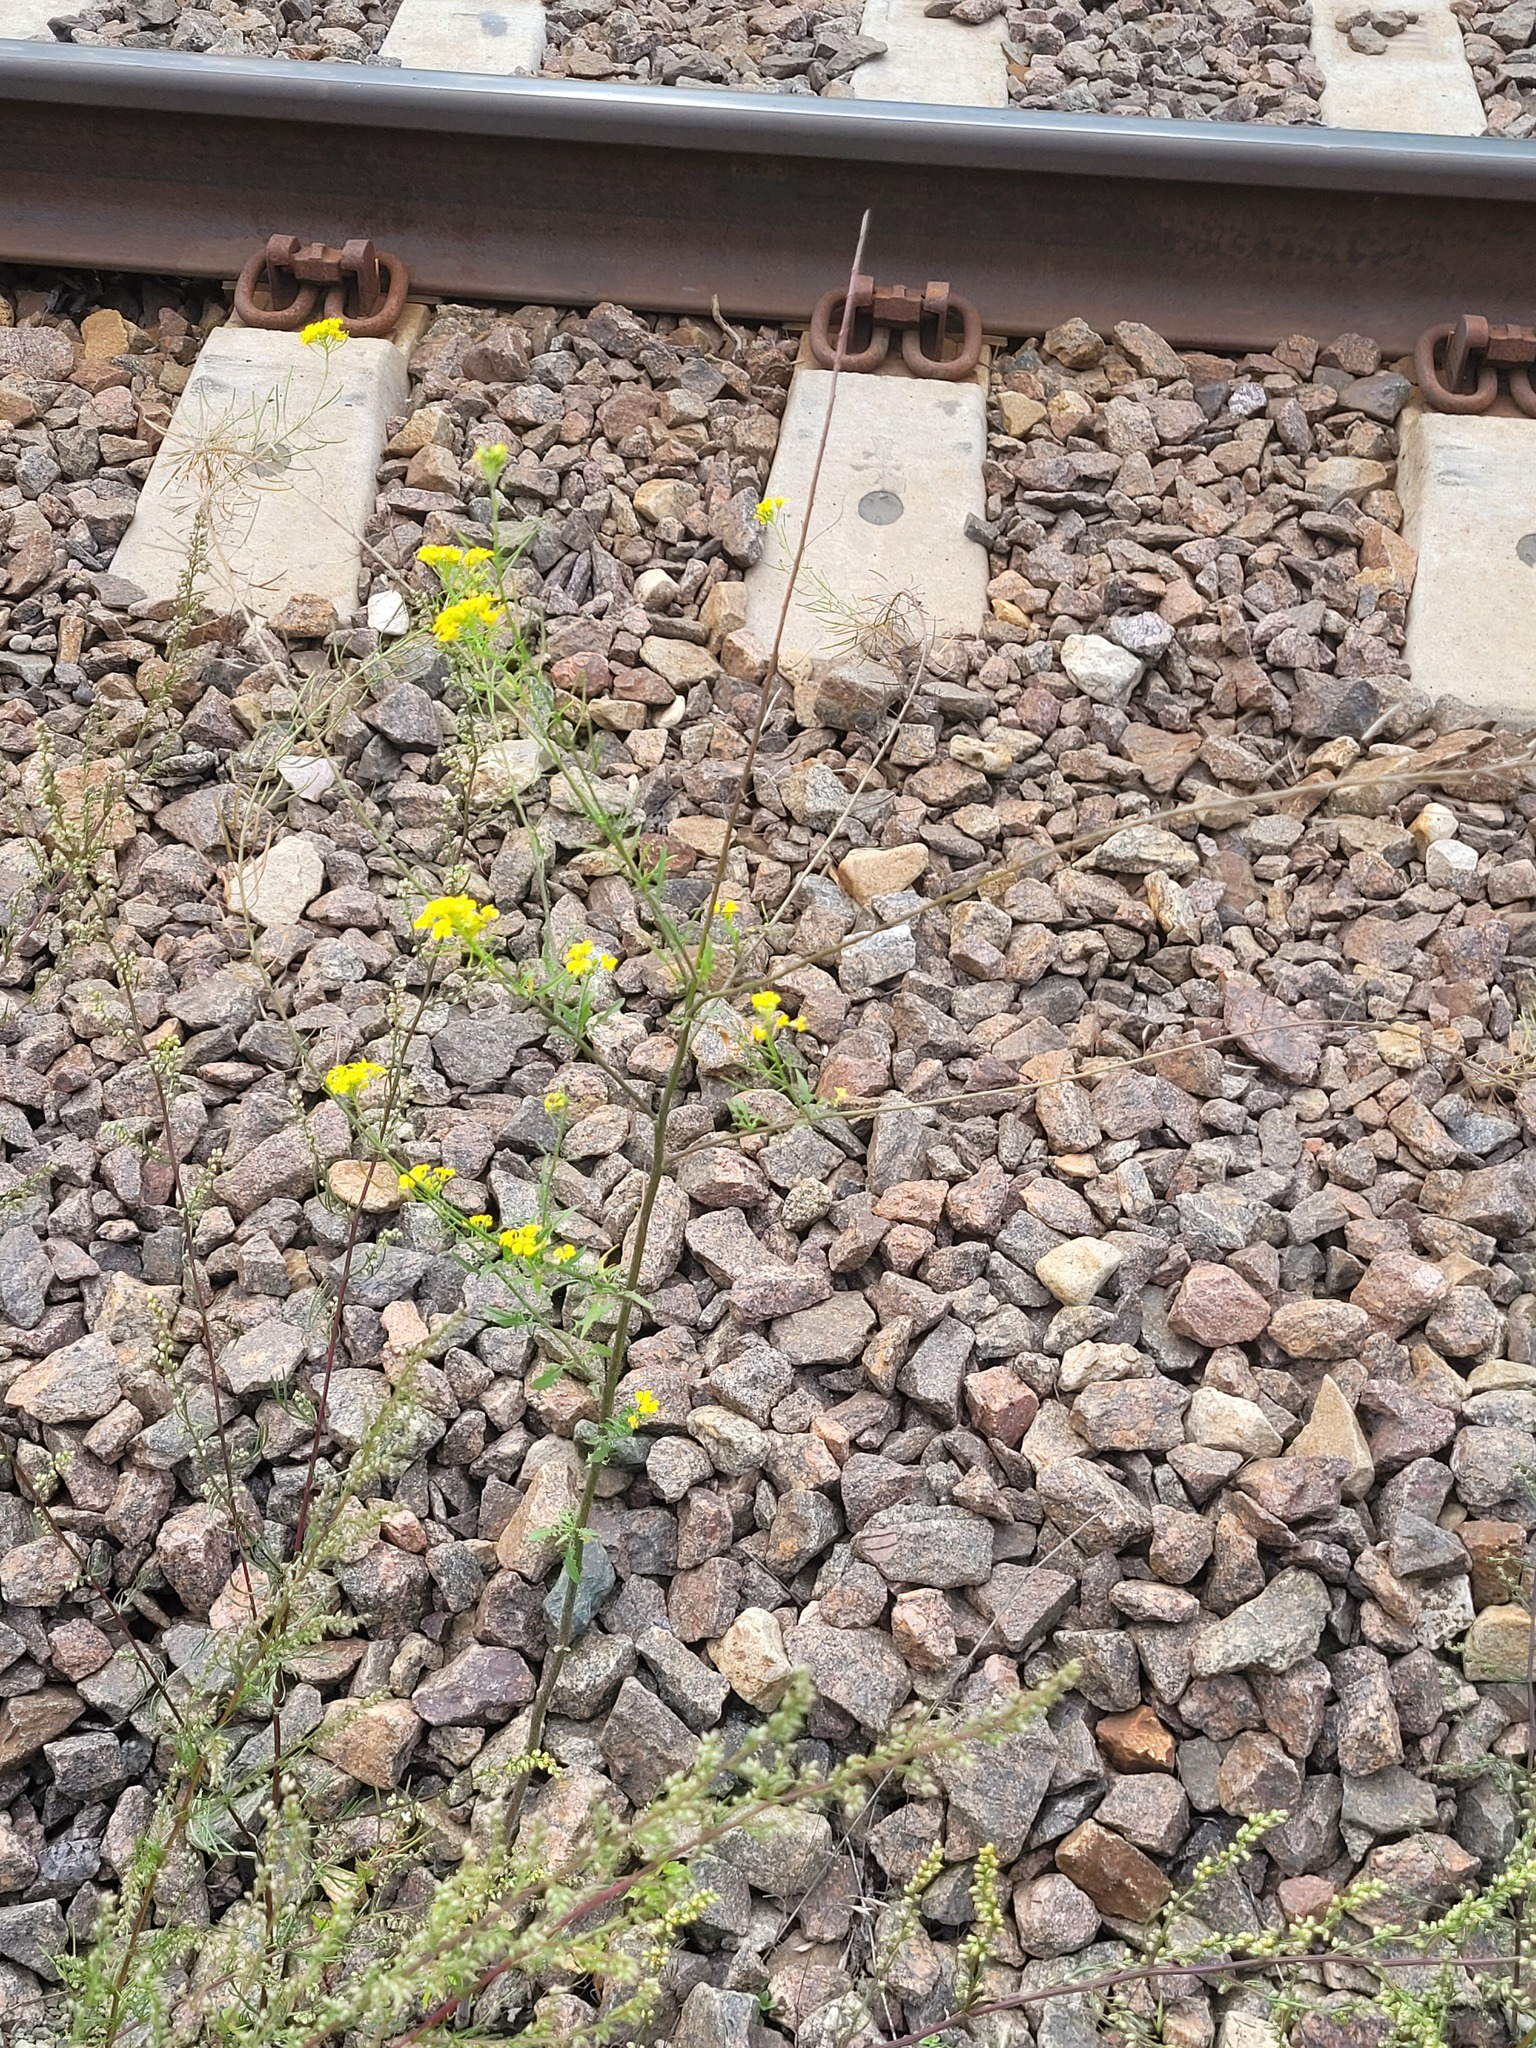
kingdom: Plantae
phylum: Tracheophyta
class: Magnoliopsida
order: Brassicales
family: Brassicaceae
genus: Sisymbrium
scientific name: Sisymbrium loeselii
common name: False london-rocket
